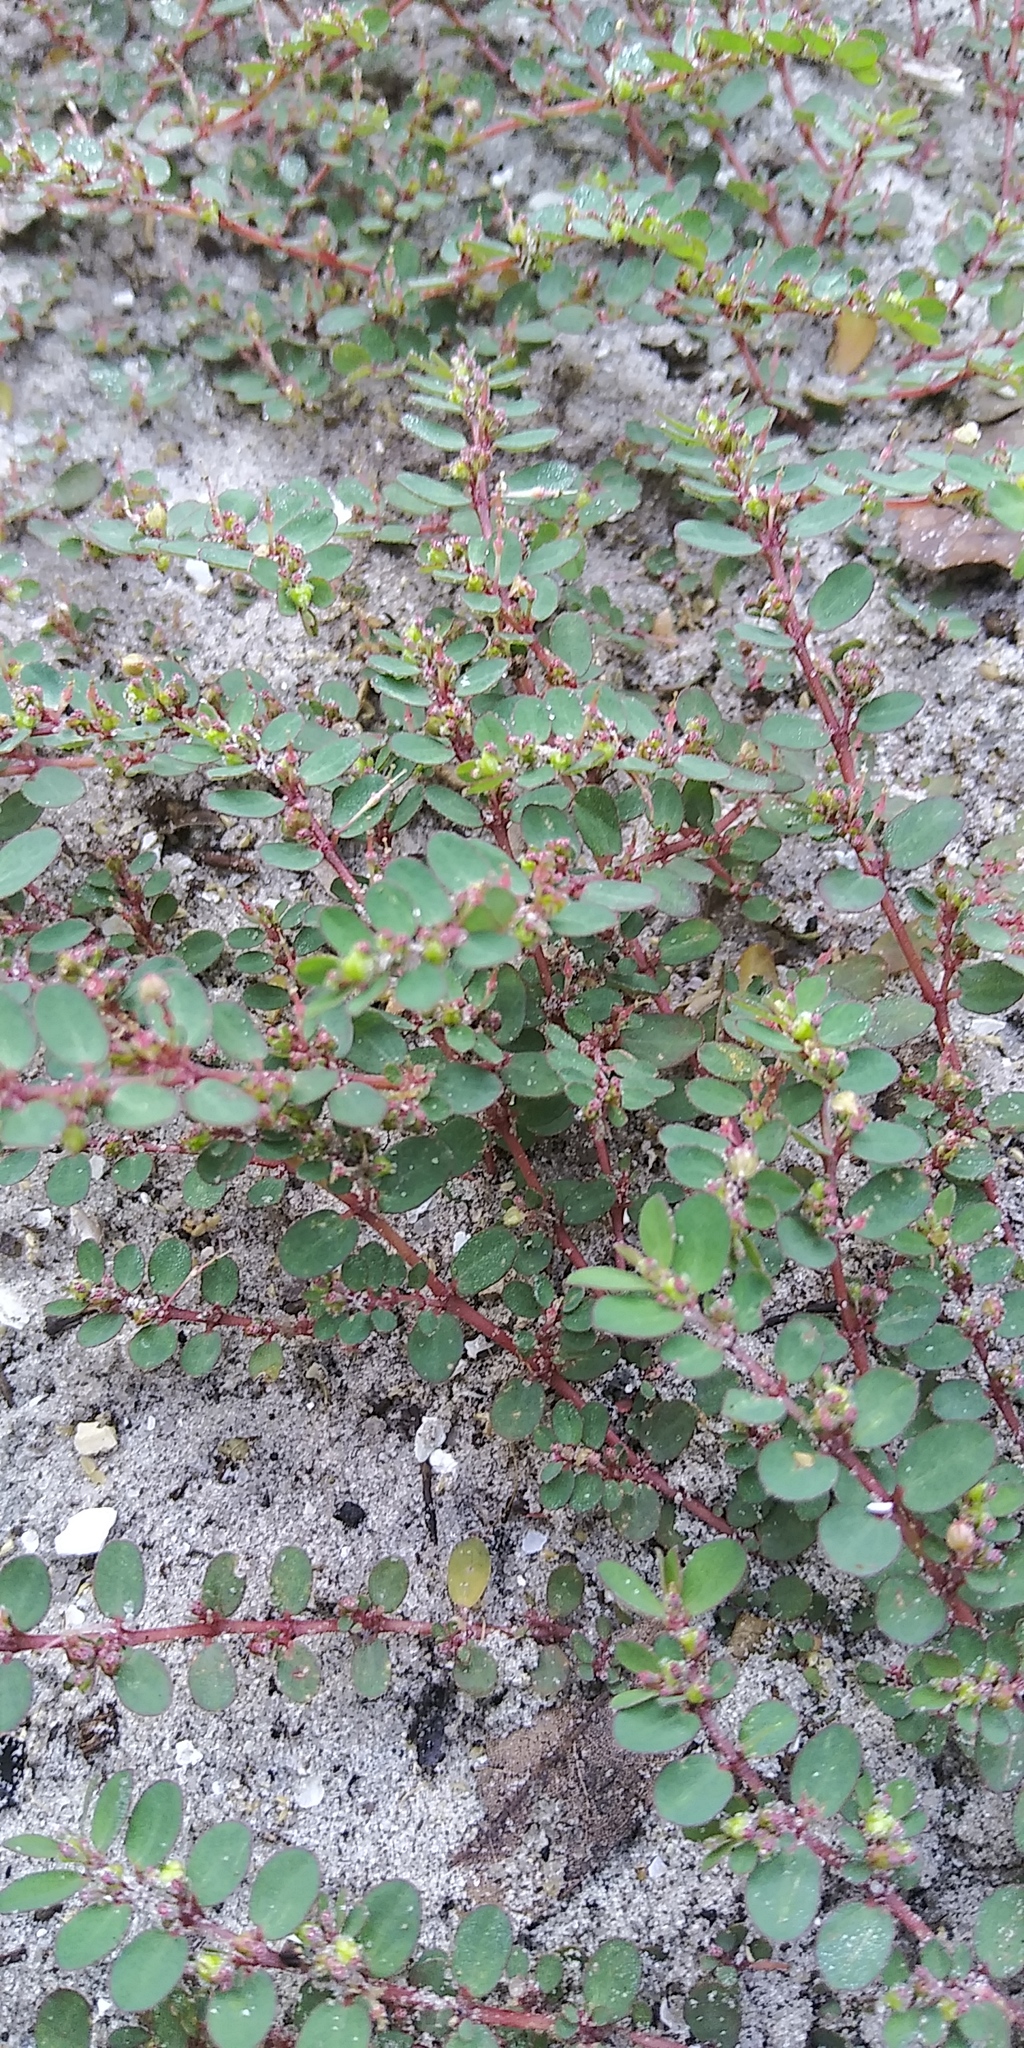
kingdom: Plantae
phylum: Tracheophyta
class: Magnoliopsida
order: Malpighiales
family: Euphorbiaceae
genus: Euphorbia
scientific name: Euphorbia prostrata
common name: Prostrate sandmat
